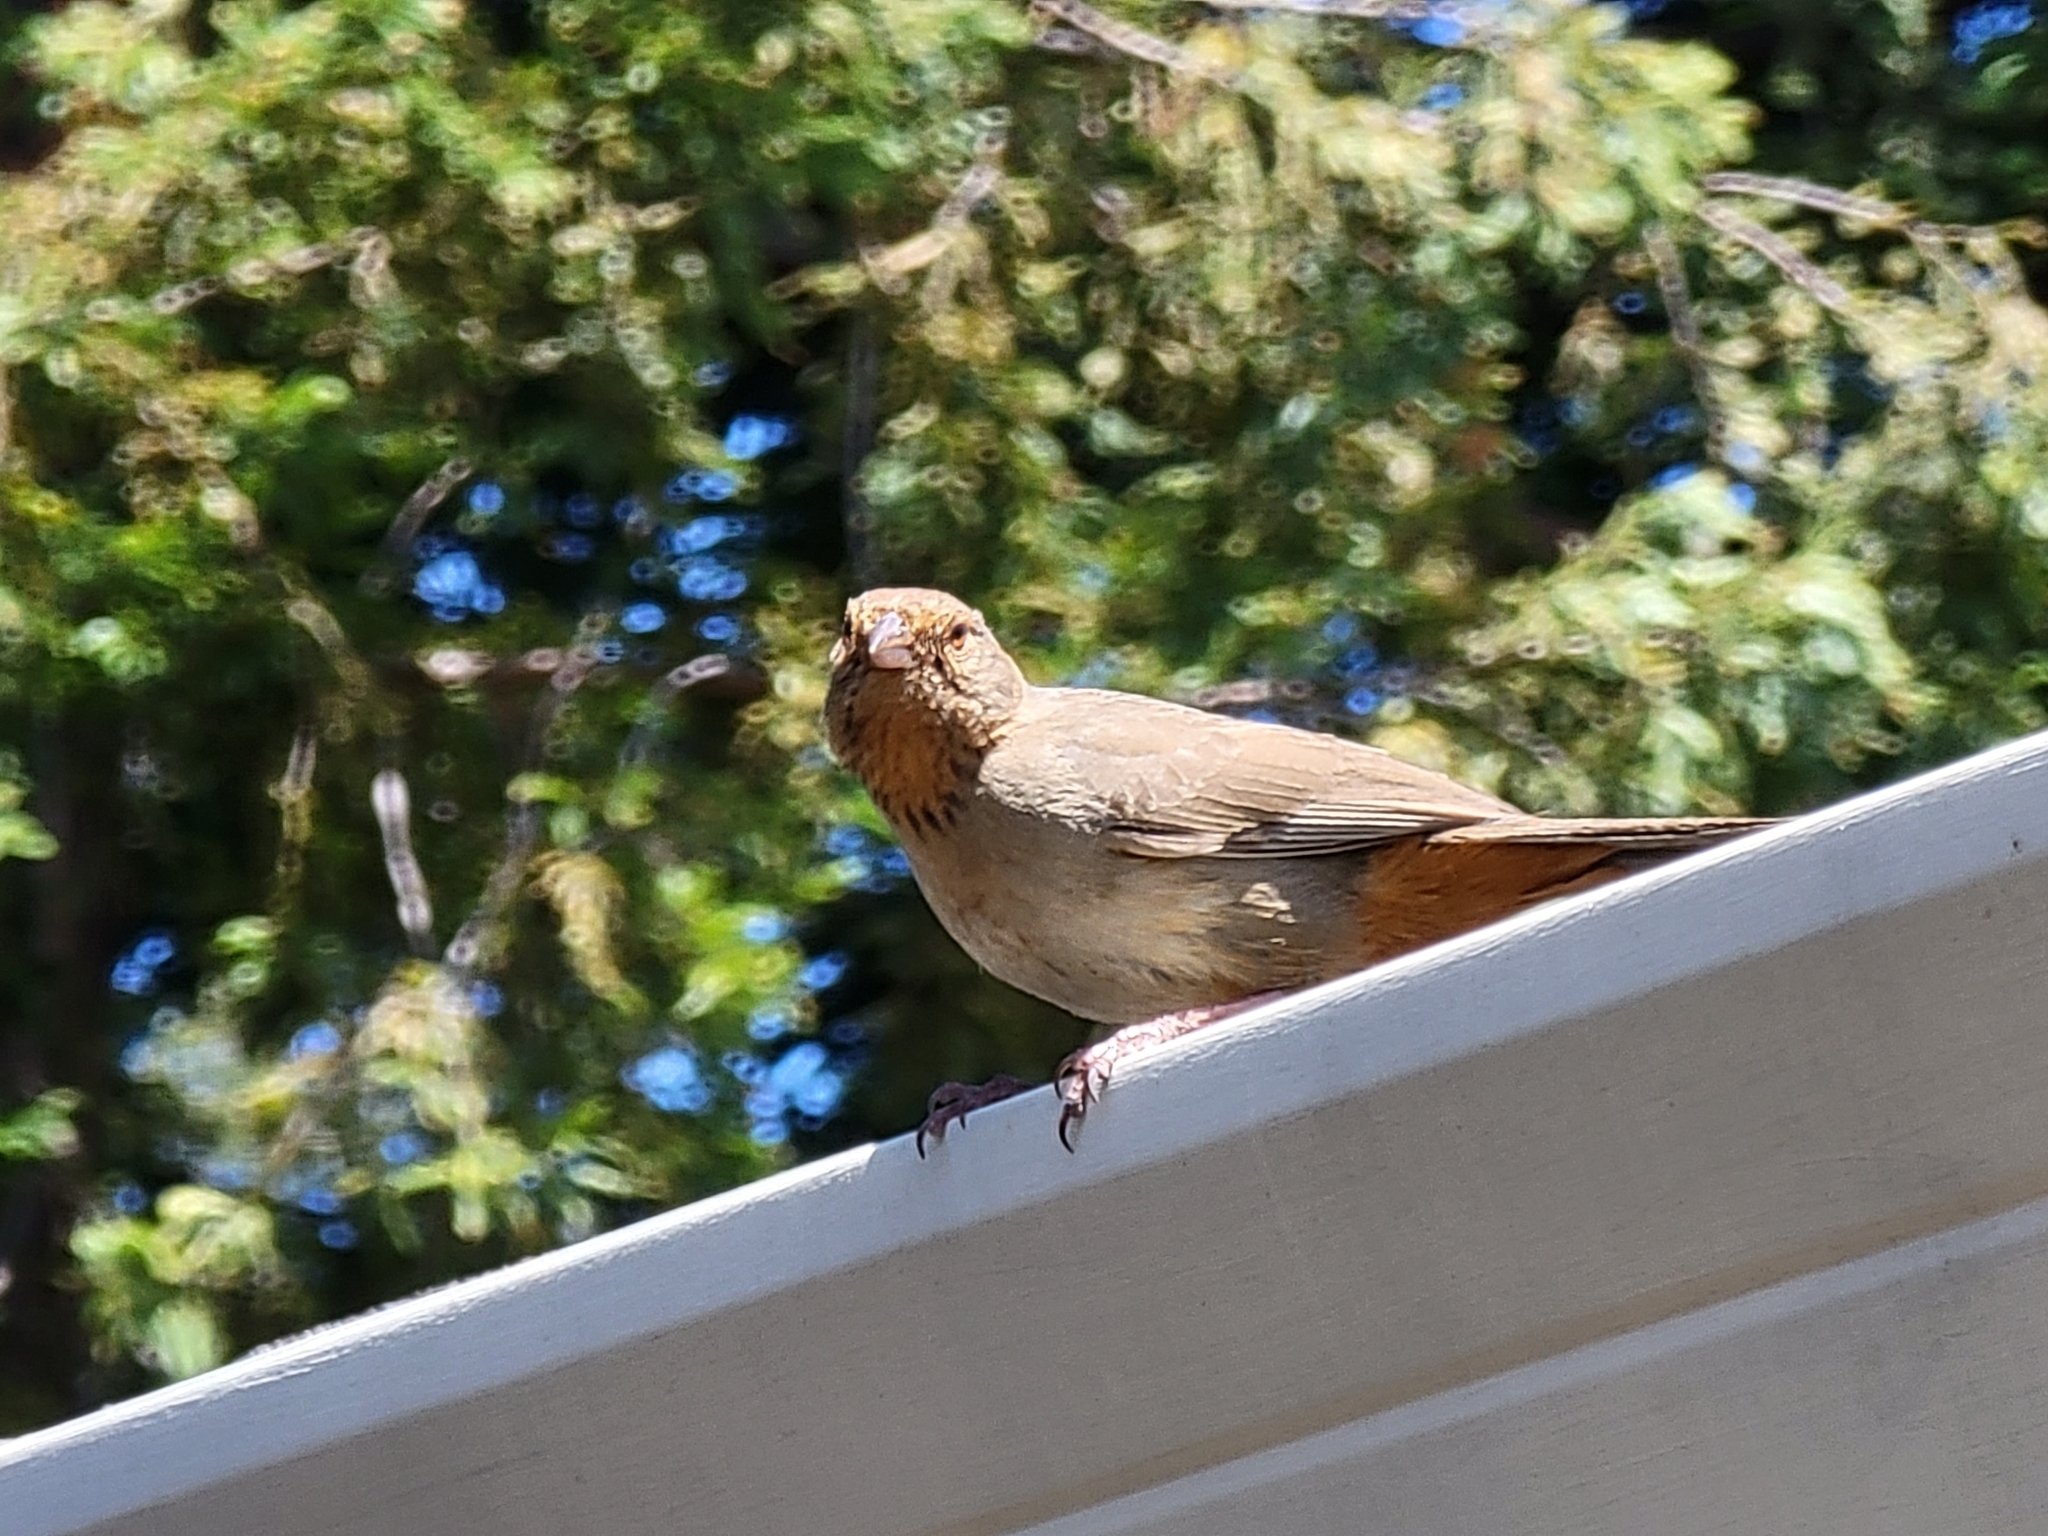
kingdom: Animalia
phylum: Chordata
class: Aves
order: Passeriformes
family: Passerellidae
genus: Melozone
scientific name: Melozone crissalis
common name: California towhee
